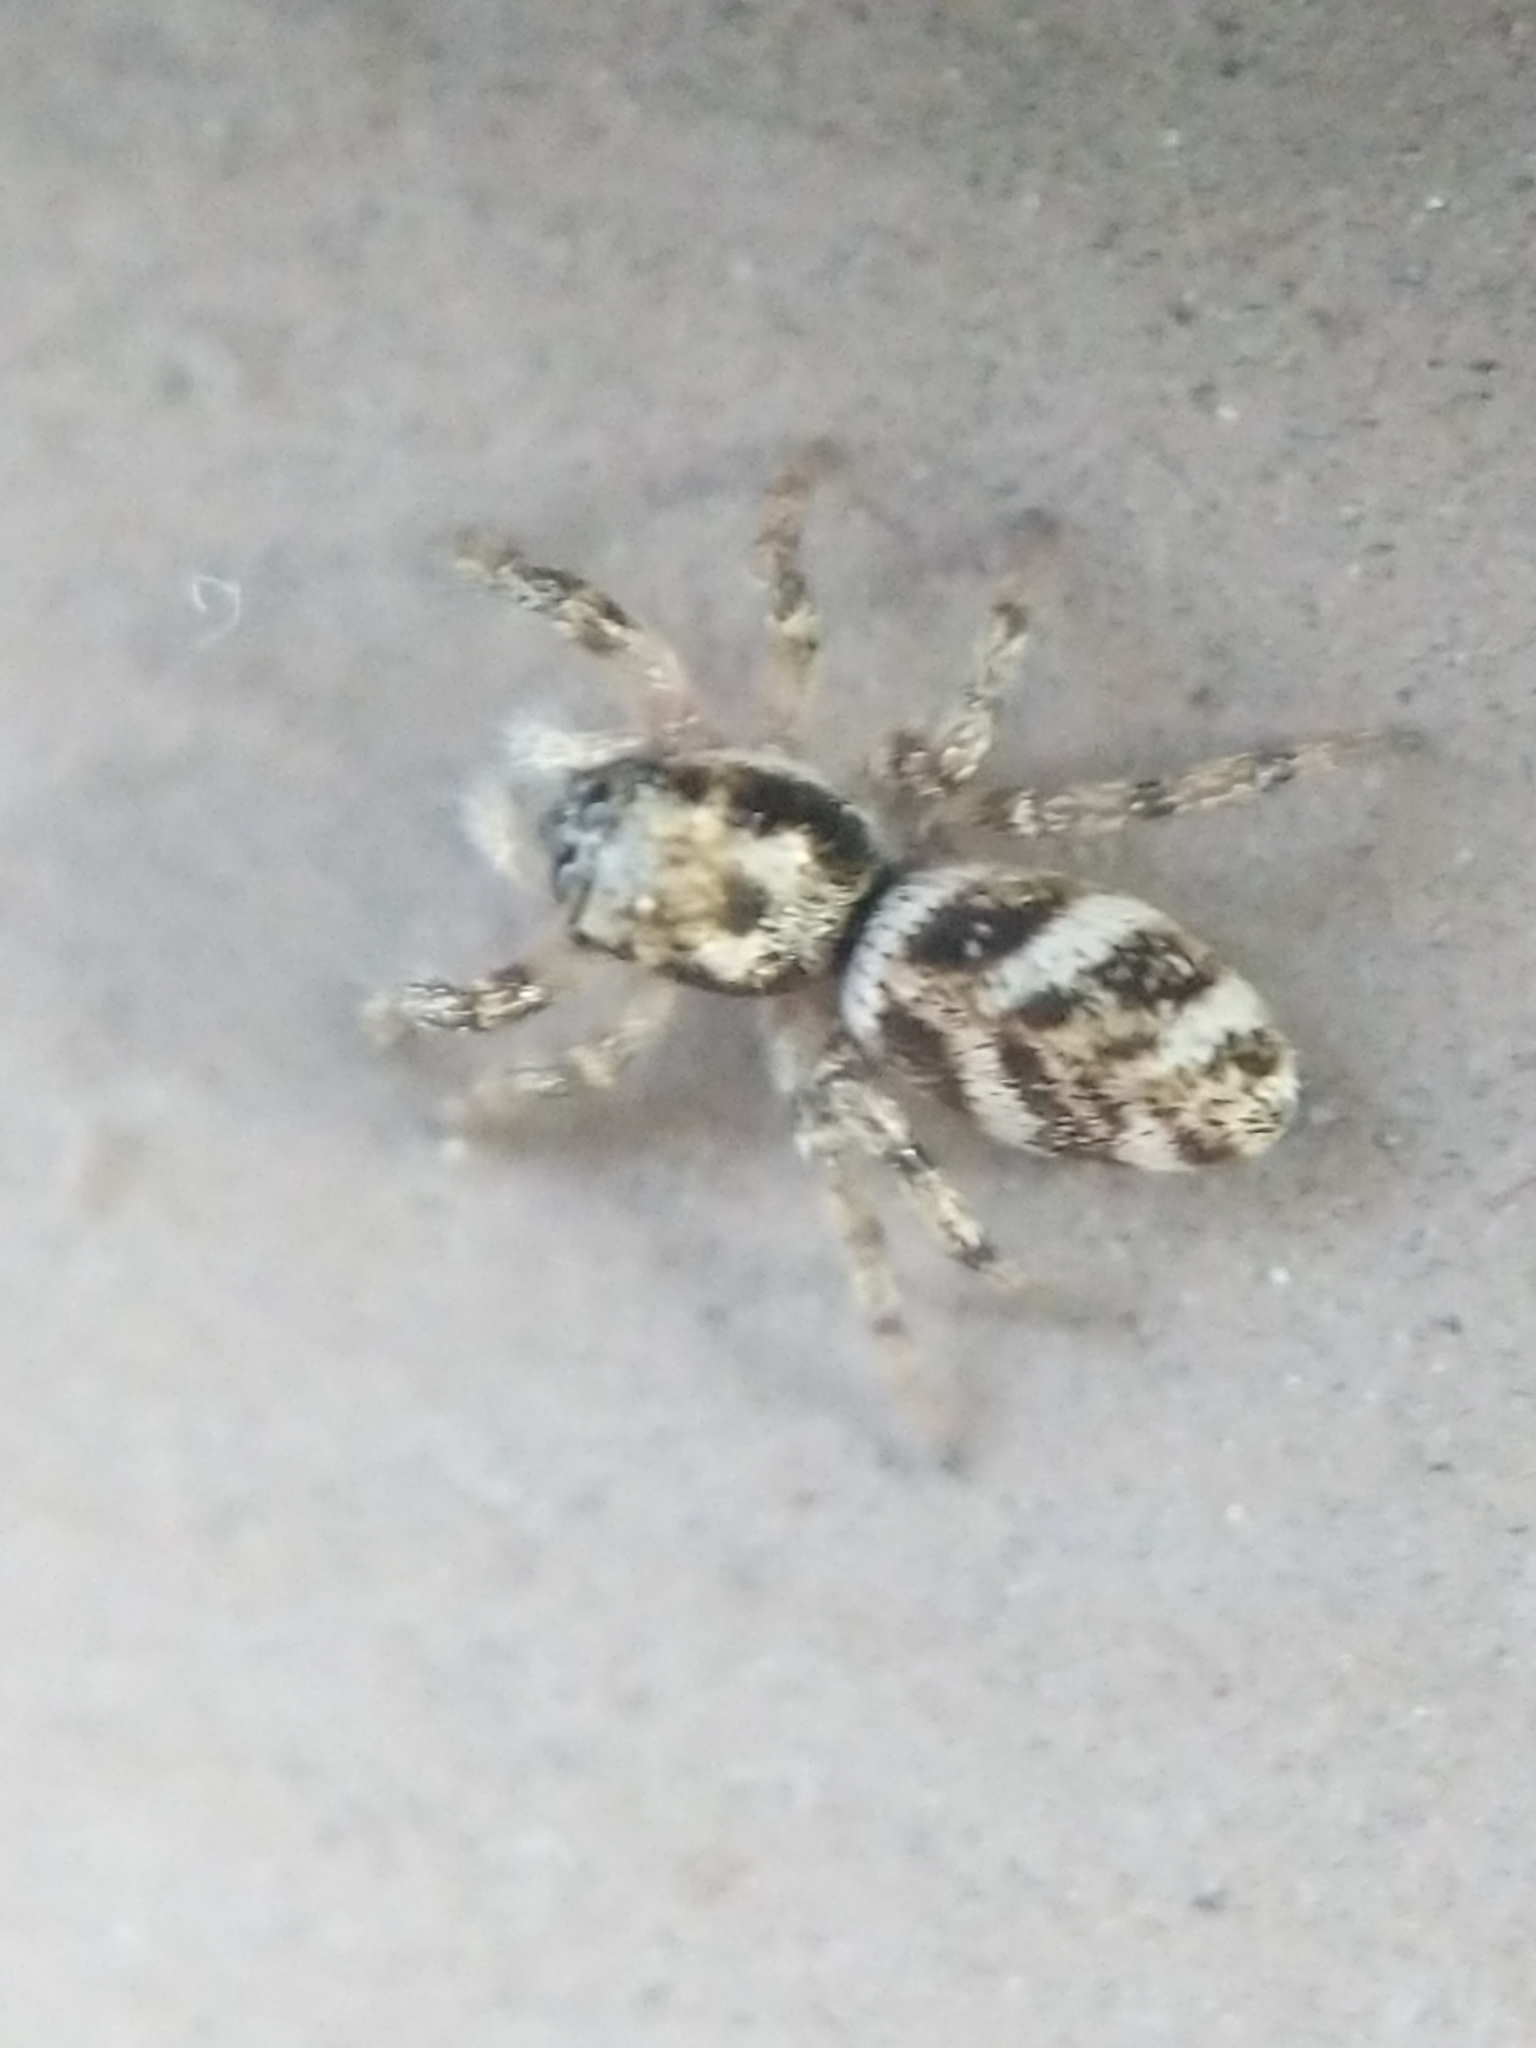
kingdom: Animalia
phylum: Arthropoda
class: Arachnida
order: Araneae
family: Salticidae
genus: Salticus
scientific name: Salticus scenicus
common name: Zebra jumper
